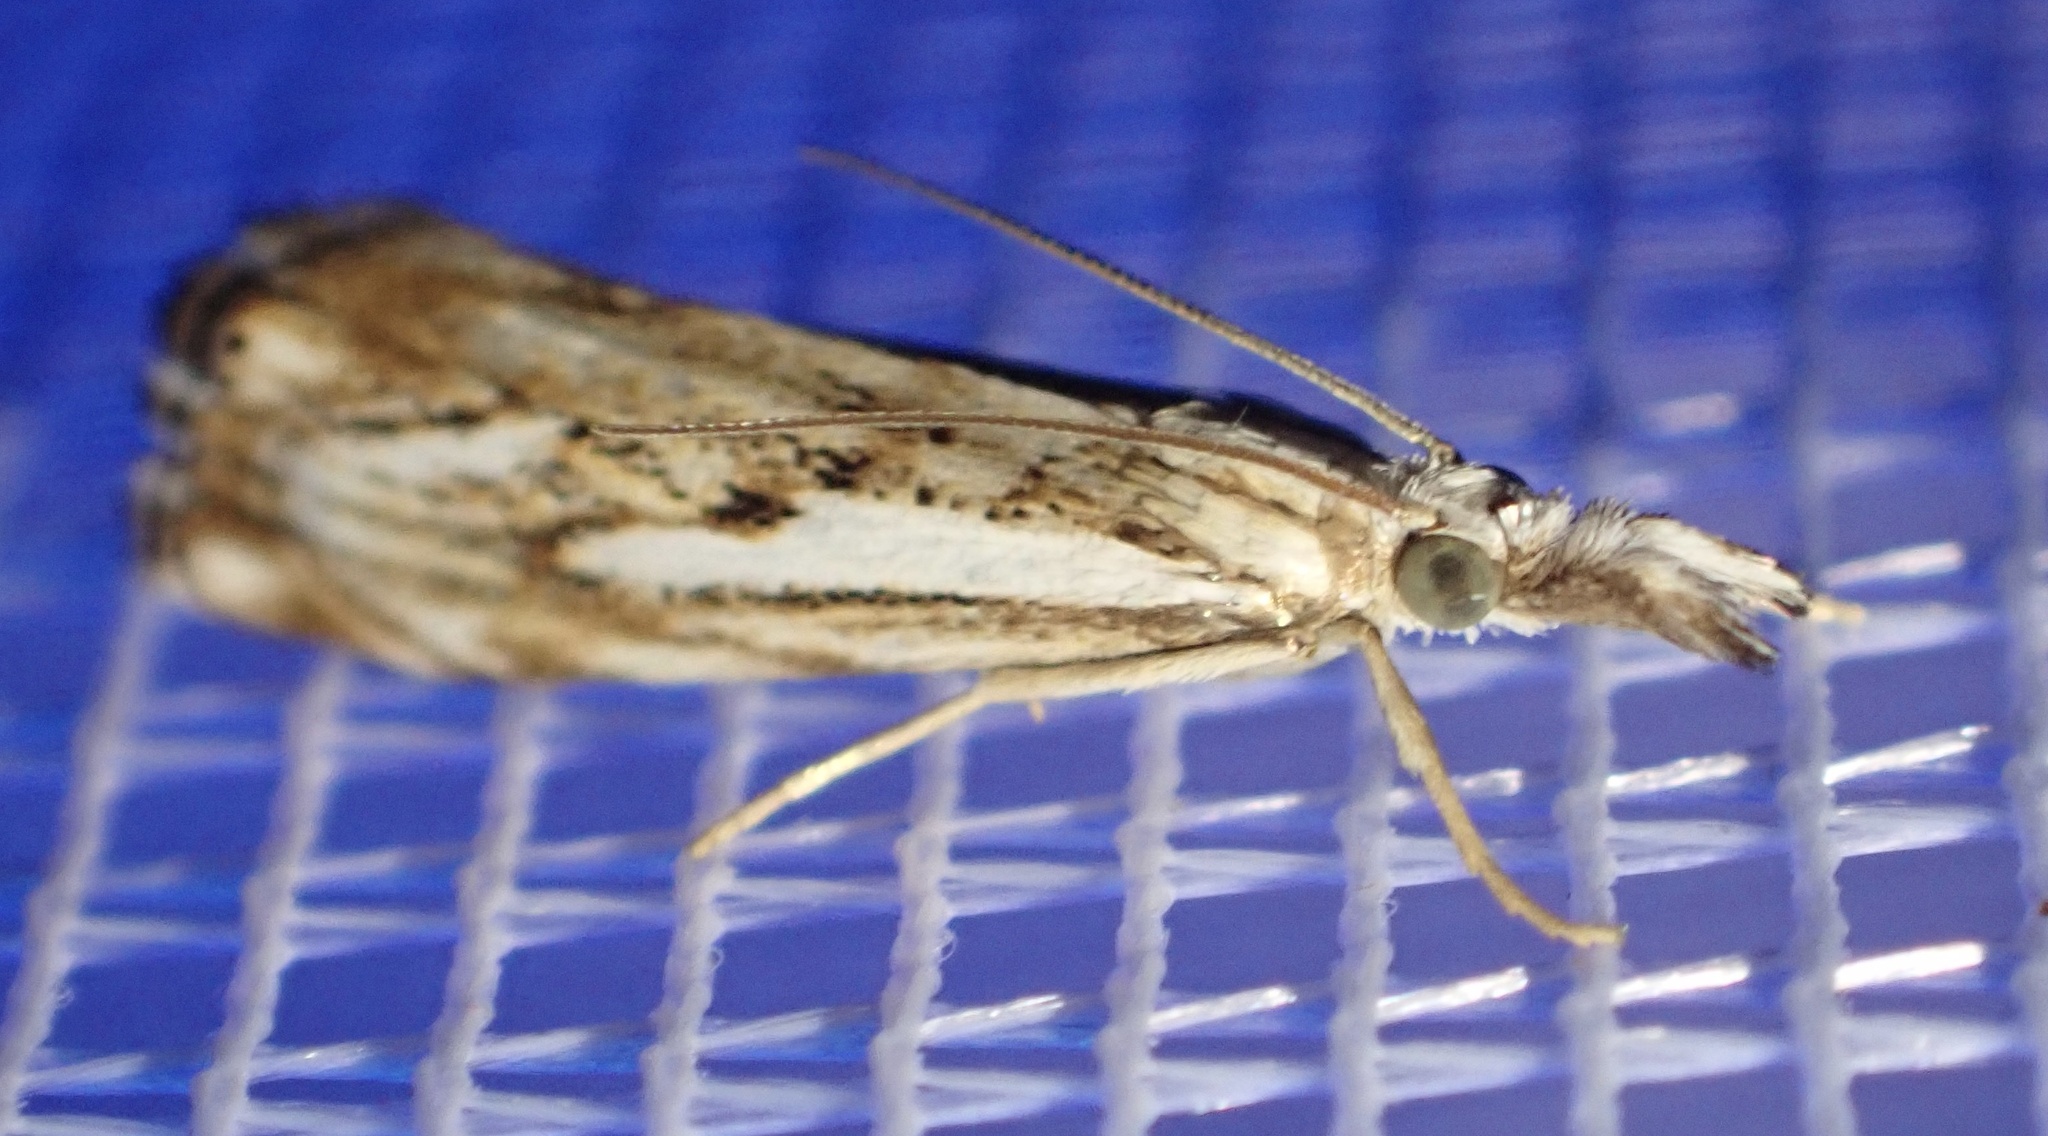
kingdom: Animalia
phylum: Arthropoda
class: Insecta
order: Lepidoptera
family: Crambidae
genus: Catoptria
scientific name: Catoptria falsella
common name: Chequered grass-veneer
